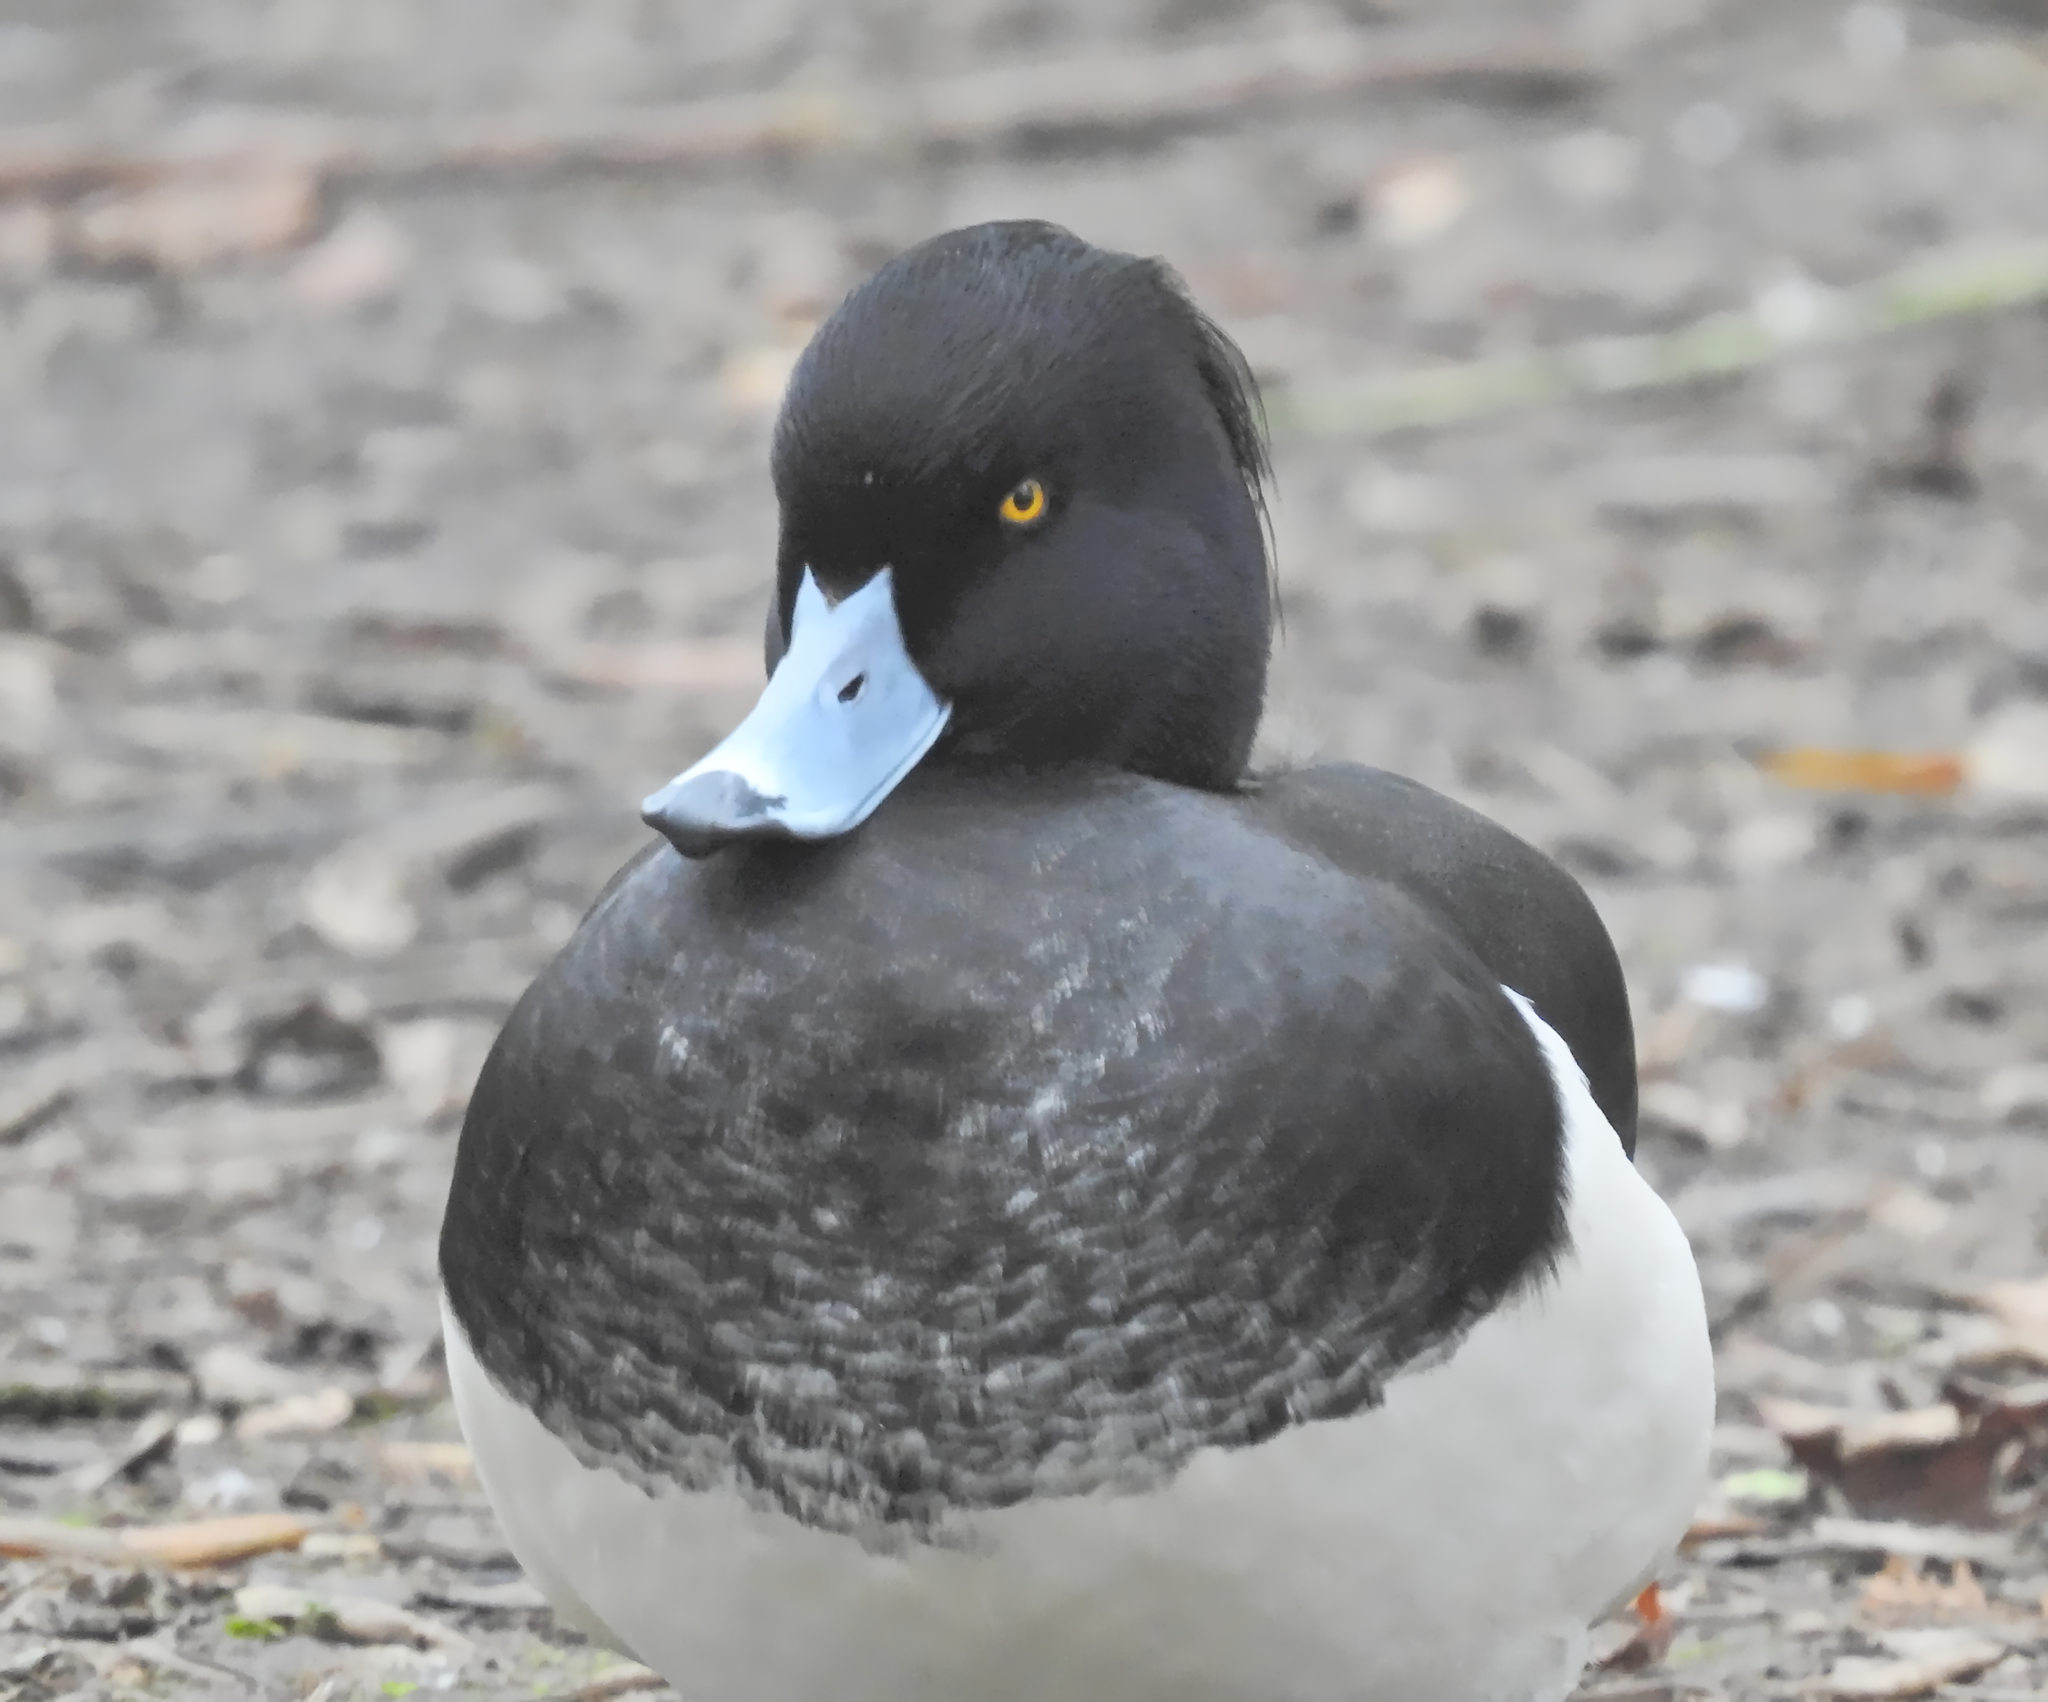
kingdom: Animalia
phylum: Chordata
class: Aves
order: Anseriformes
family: Anatidae
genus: Aythya
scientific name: Aythya fuligula
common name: Tufted duck
